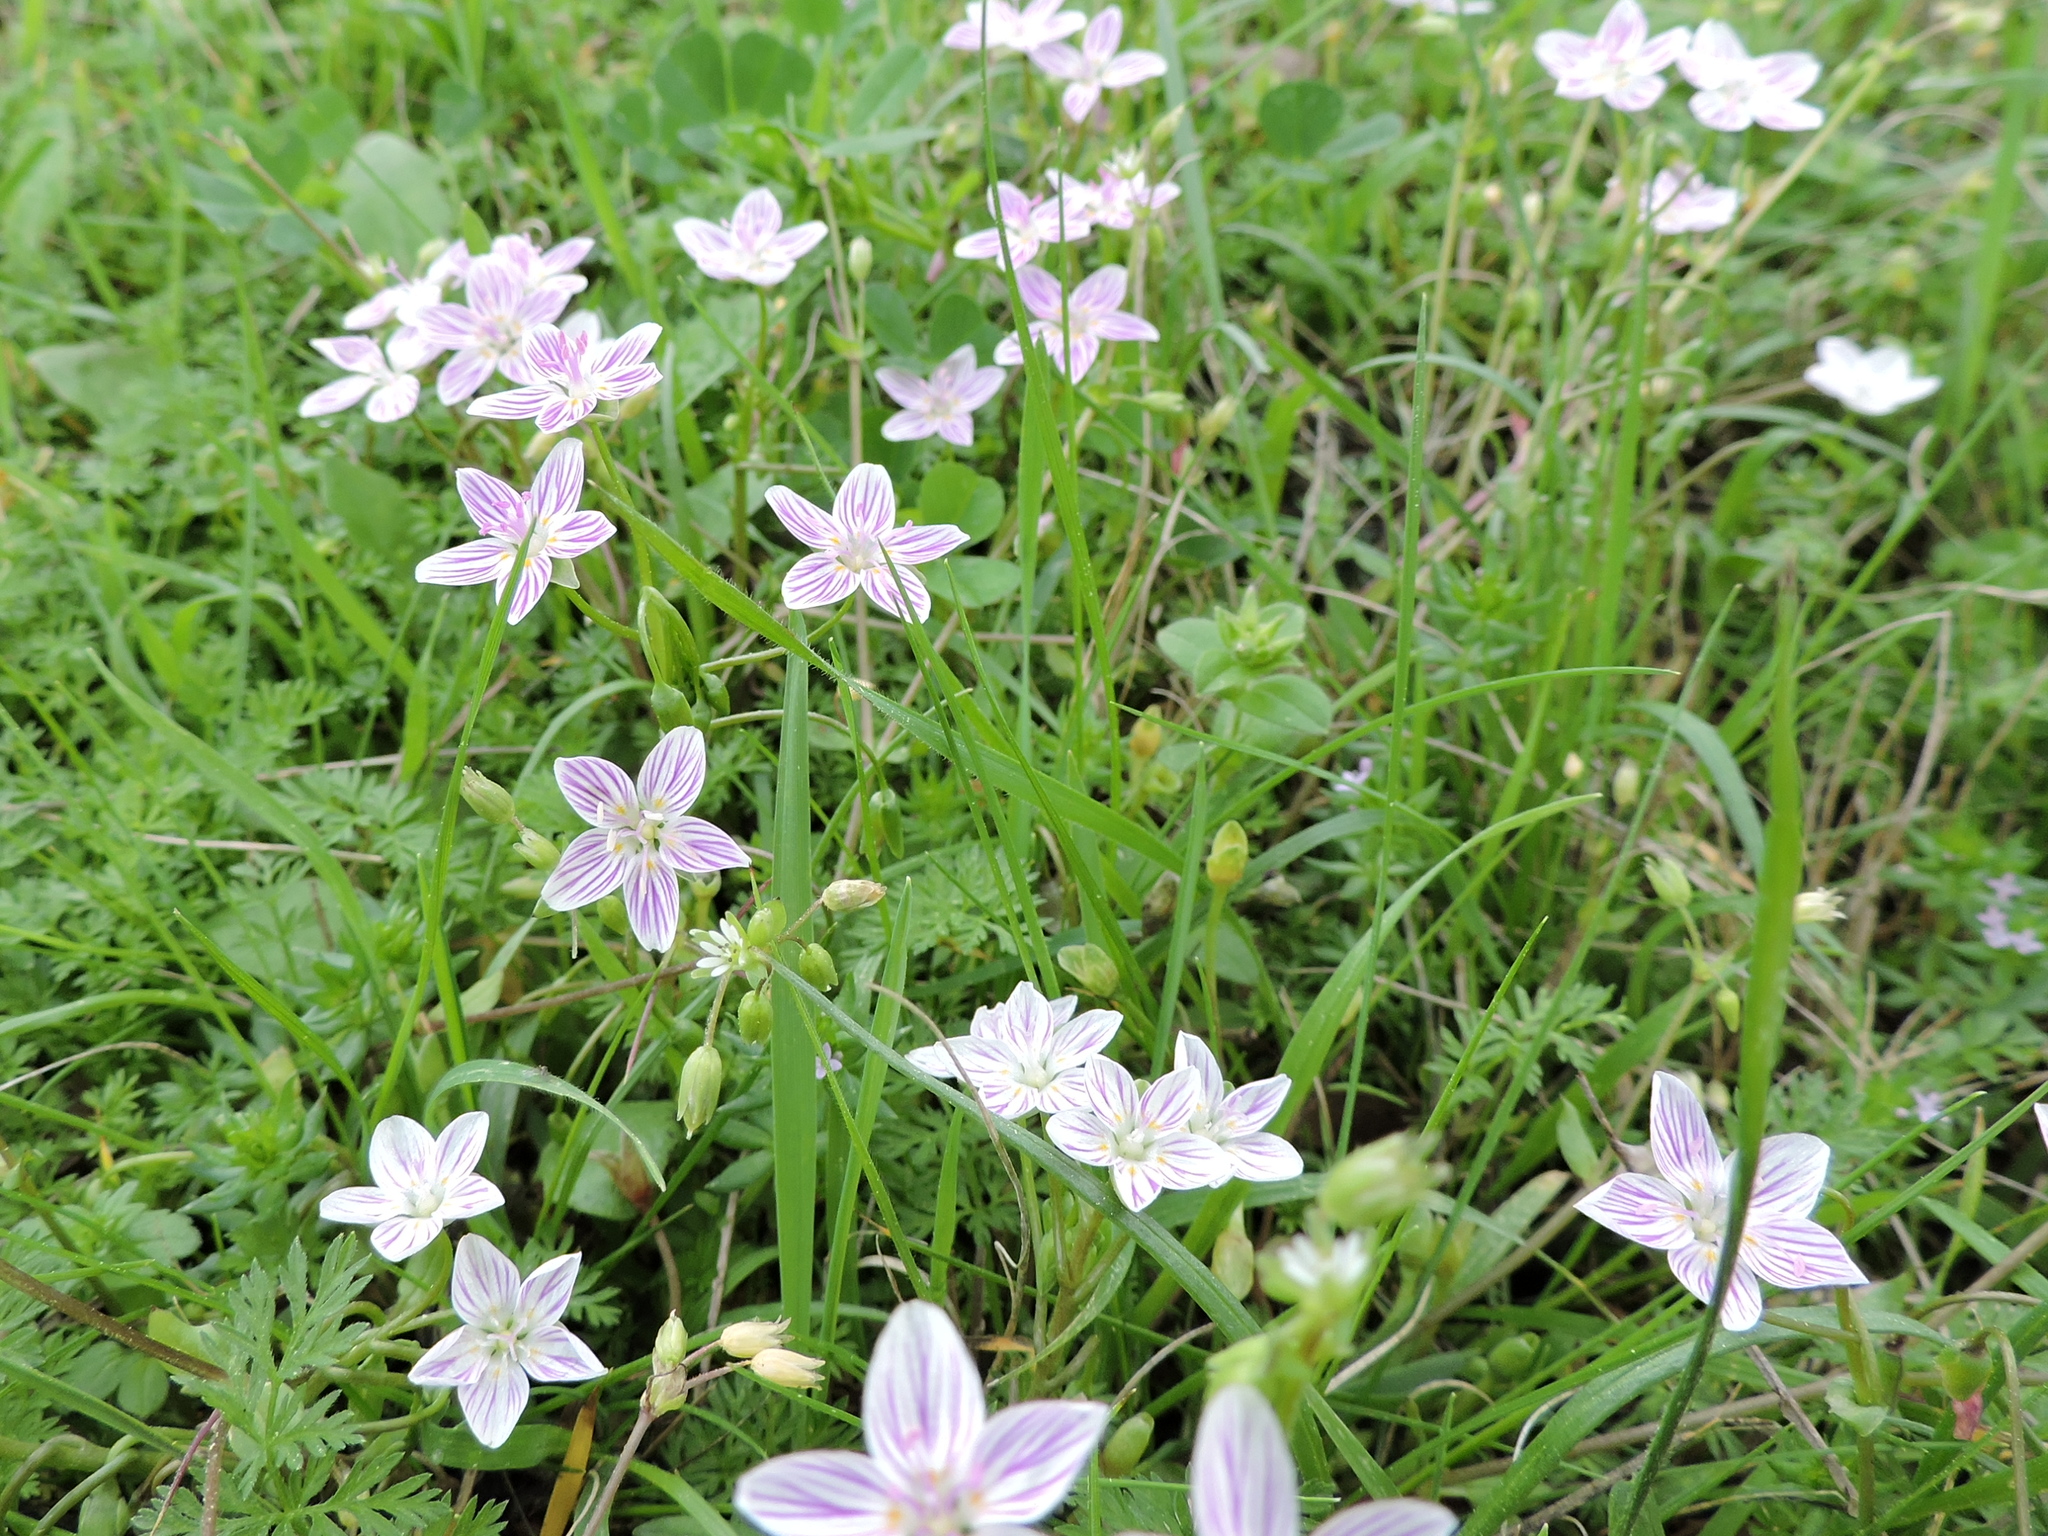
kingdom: Plantae
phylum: Tracheophyta
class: Magnoliopsida
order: Caryophyllales
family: Montiaceae
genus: Claytonia
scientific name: Claytonia virginica
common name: Virginia springbeauty
